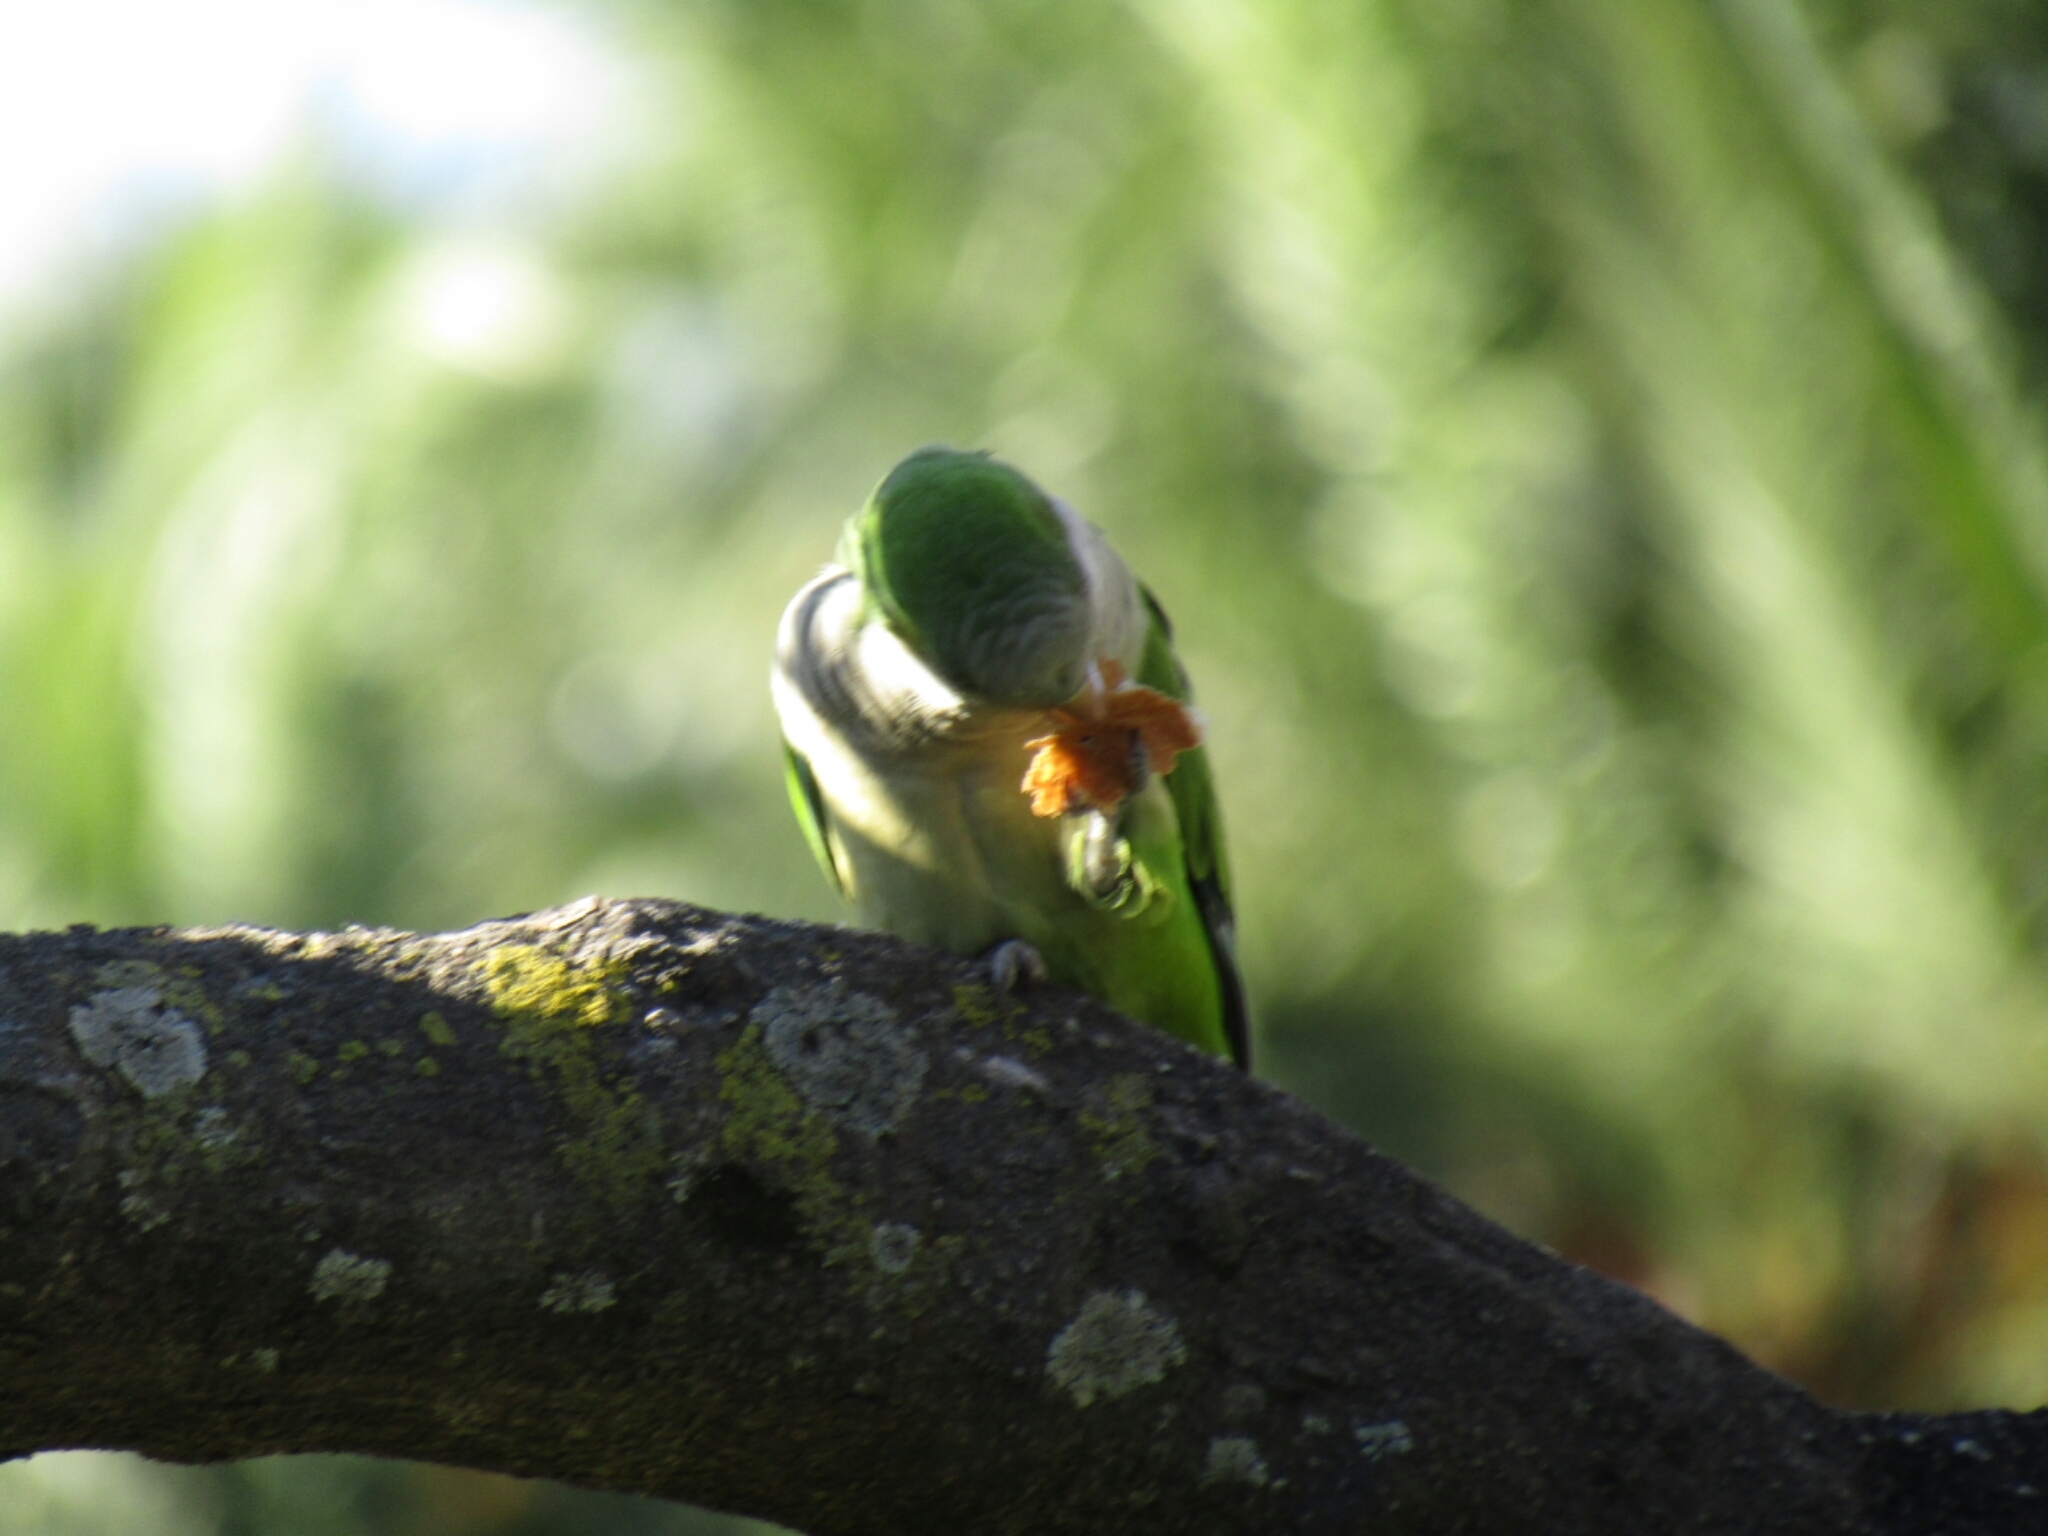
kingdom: Animalia
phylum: Chordata
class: Aves
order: Psittaciformes
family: Psittacidae
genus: Myiopsitta
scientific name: Myiopsitta monachus
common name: Monk parakeet
